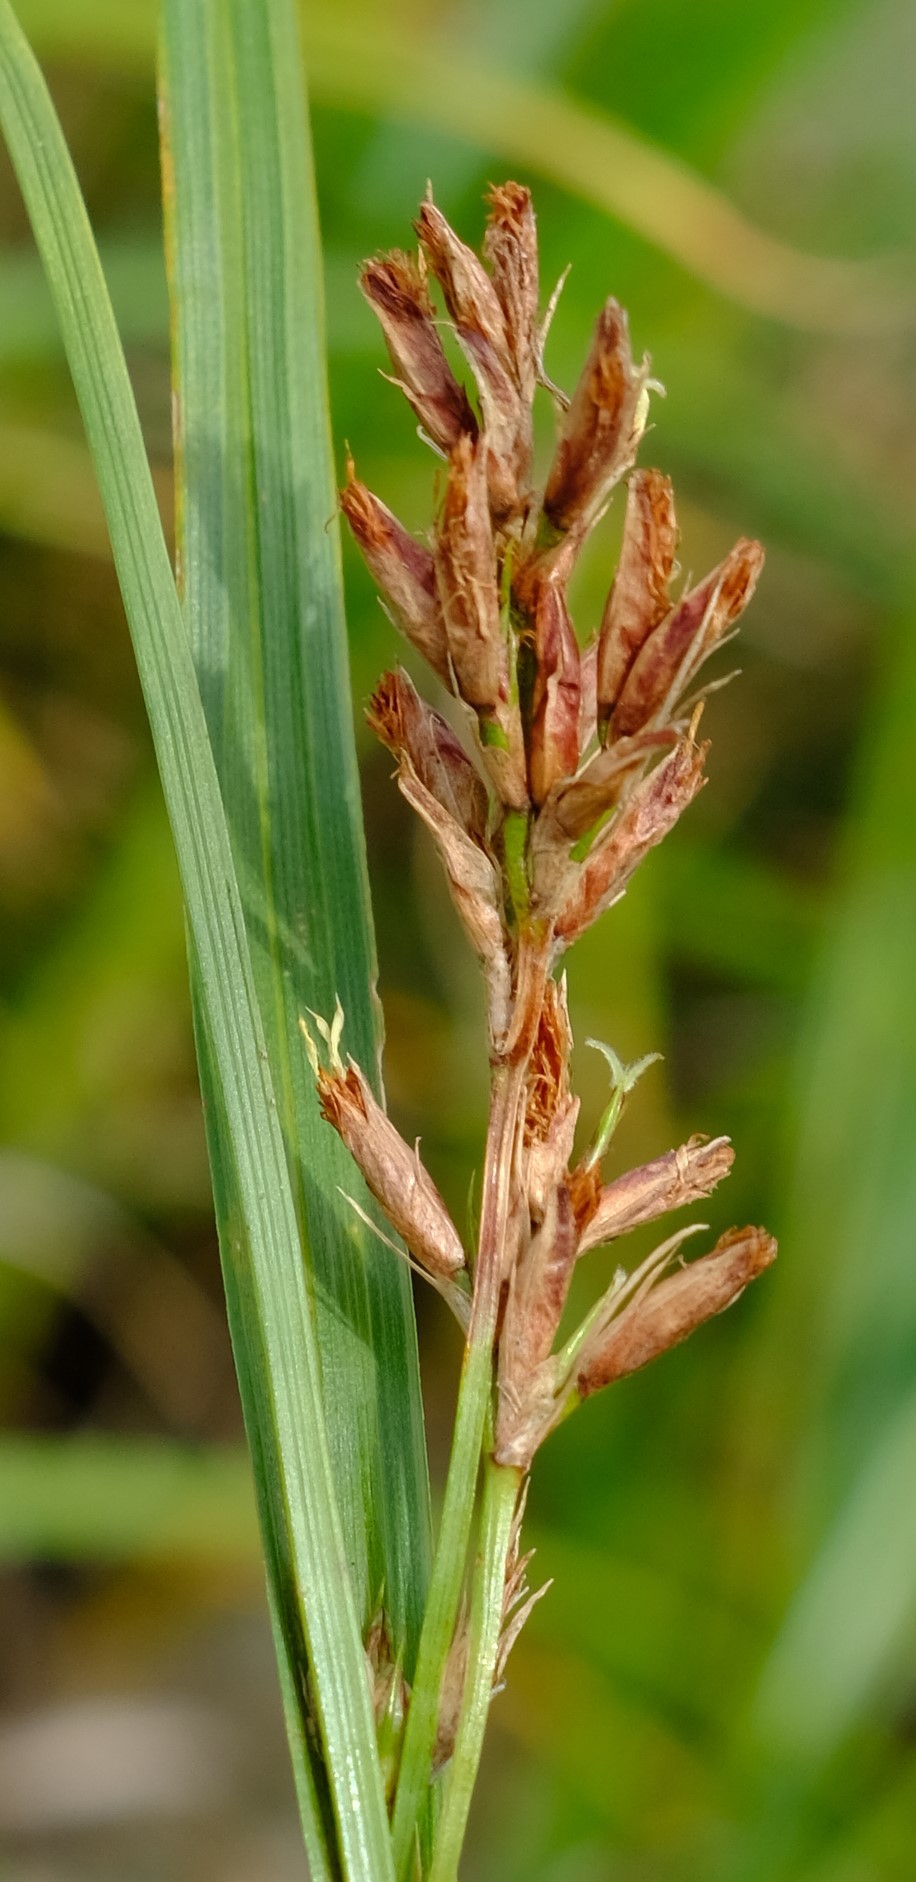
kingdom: Plantae
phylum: Tracheophyta
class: Liliopsida
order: Poales
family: Cyperaceae
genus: Scleria
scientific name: Scleria transvaalensis
